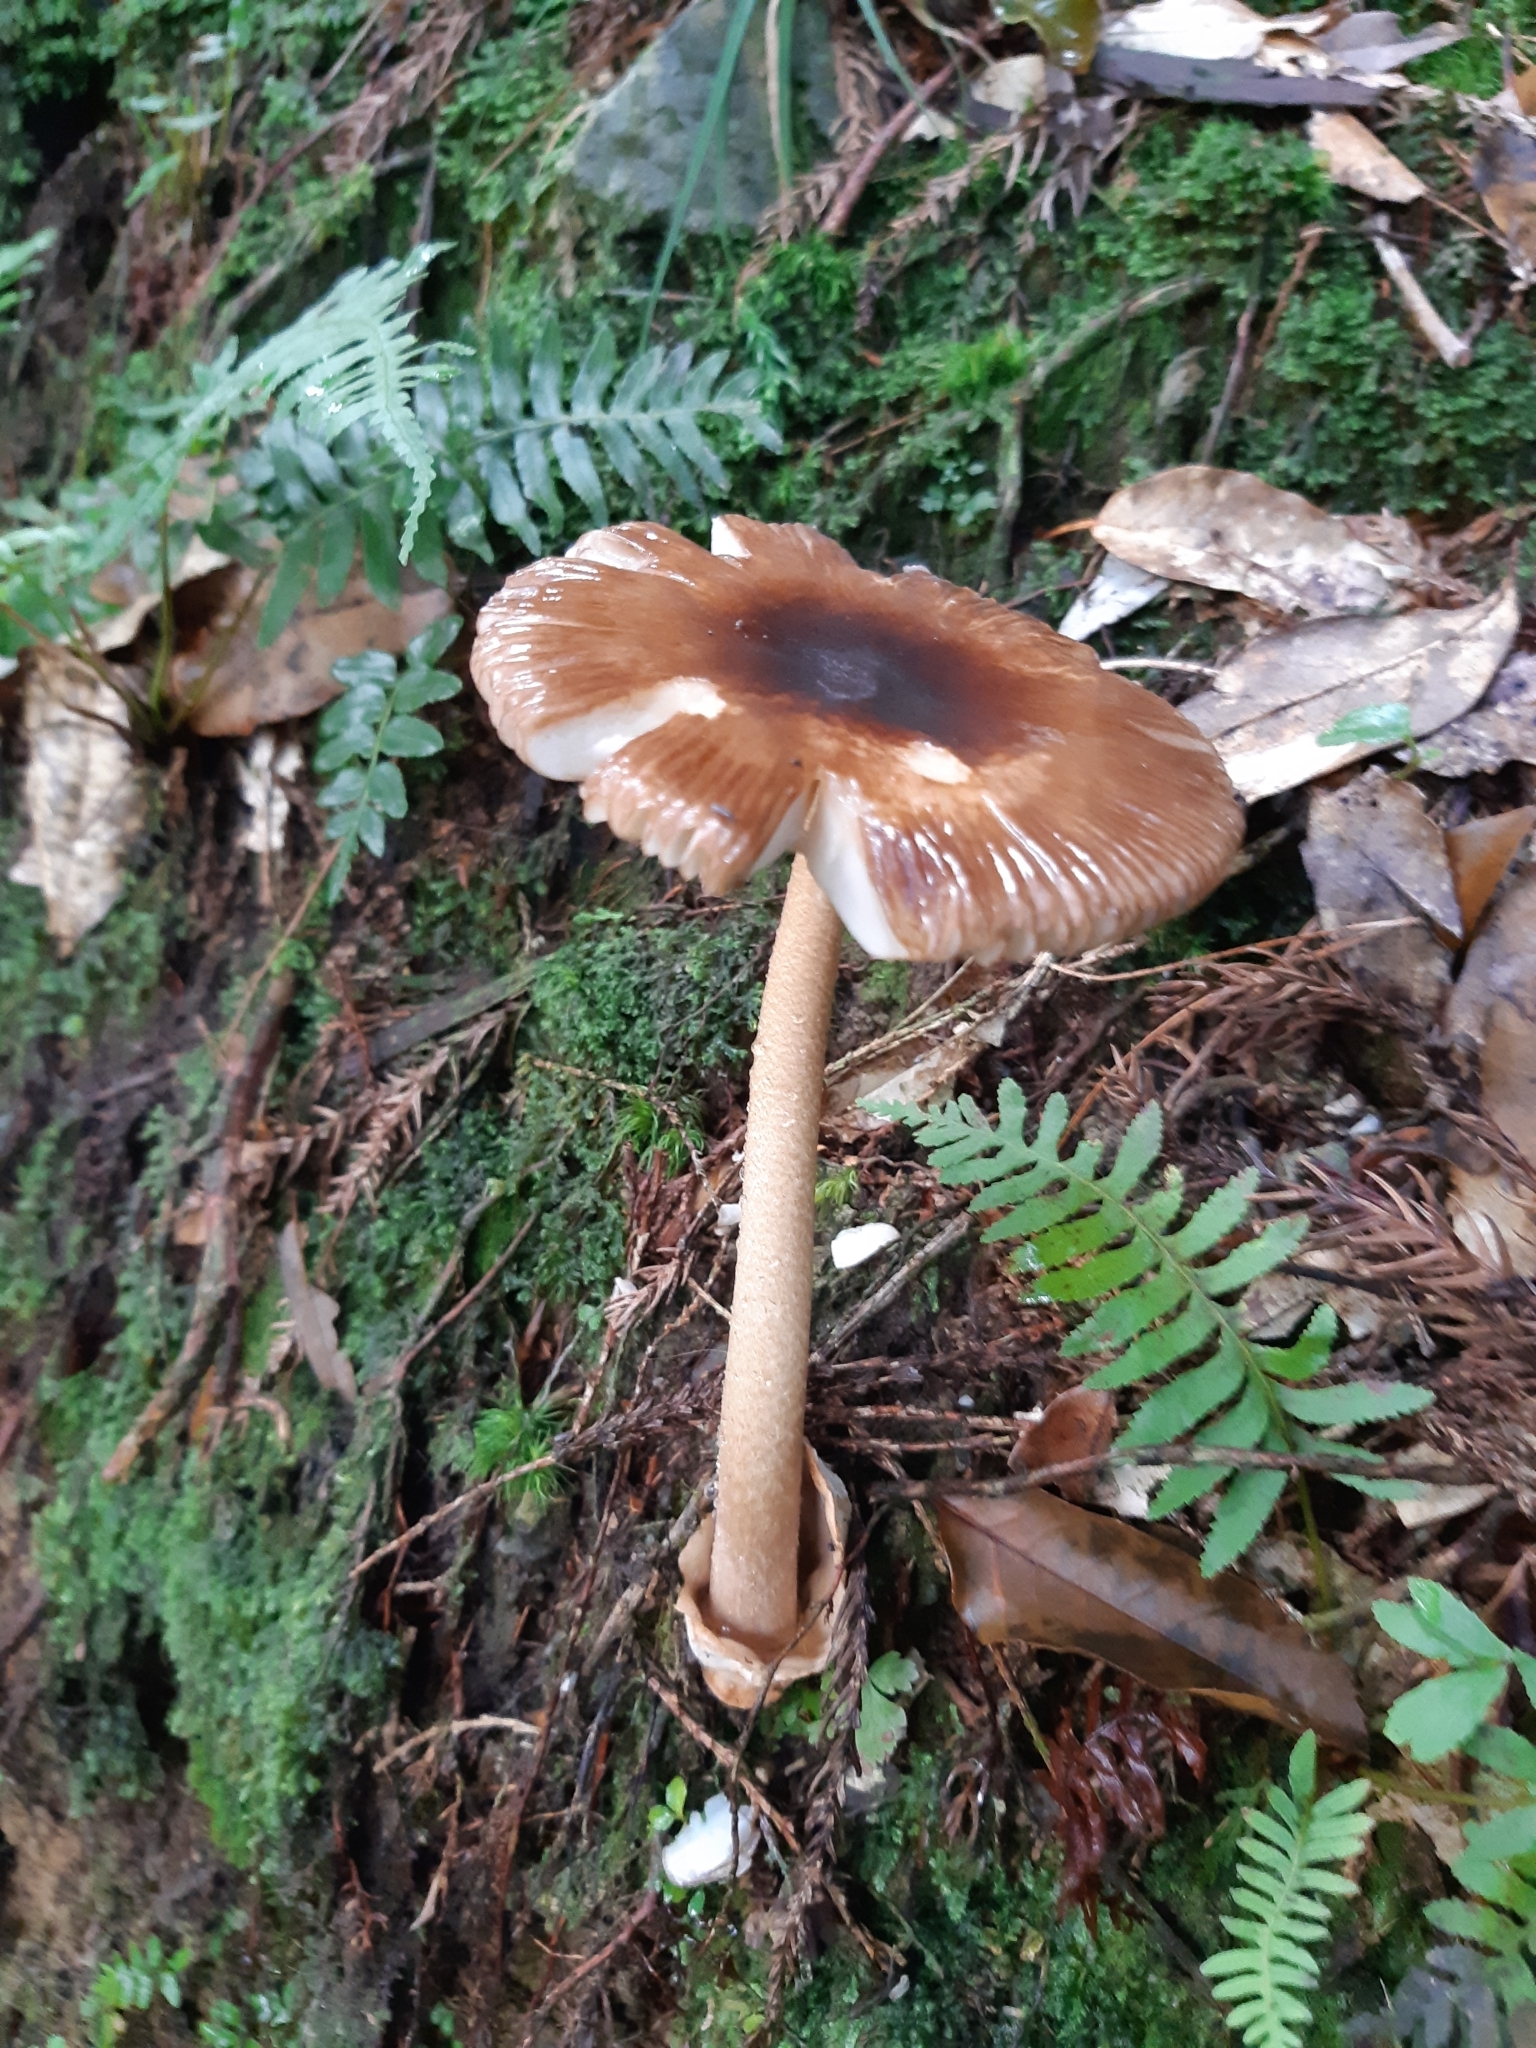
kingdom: Fungi
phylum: Basidiomycota
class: Agaricomycetes
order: Agaricales
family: Amanitaceae
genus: Amanita
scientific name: Amanita orientifulva
